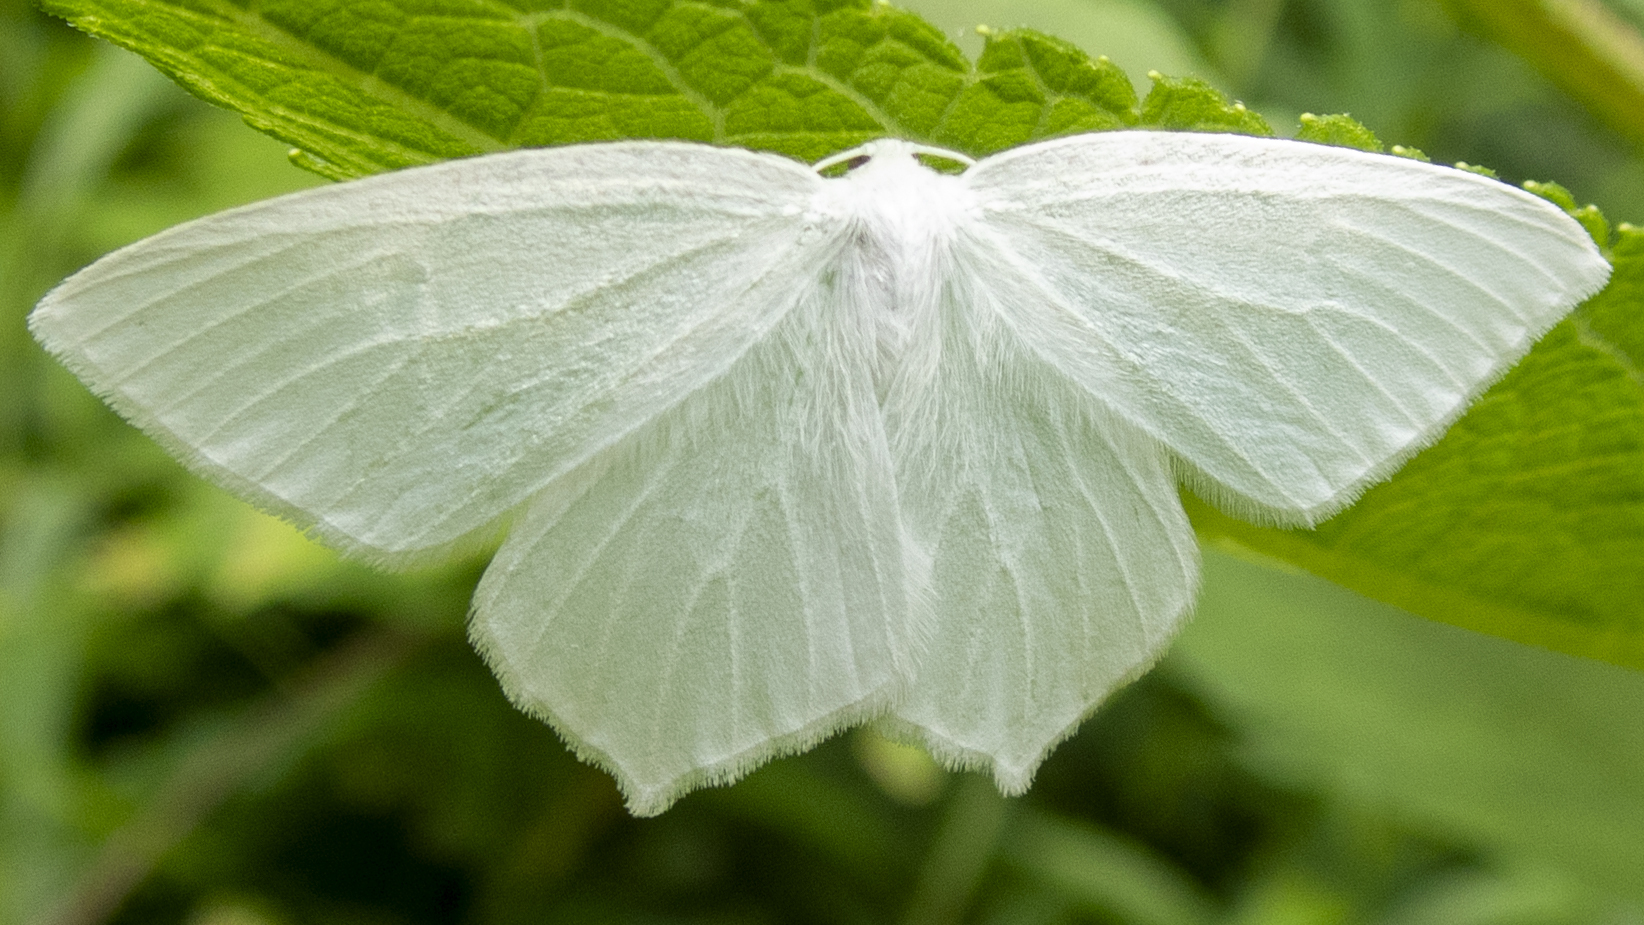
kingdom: Animalia
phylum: Arthropoda
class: Insecta
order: Lepidoptera
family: Geometridae
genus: Eugonobapta
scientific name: Eugonobapta nivosaria
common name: Snowy geometer
